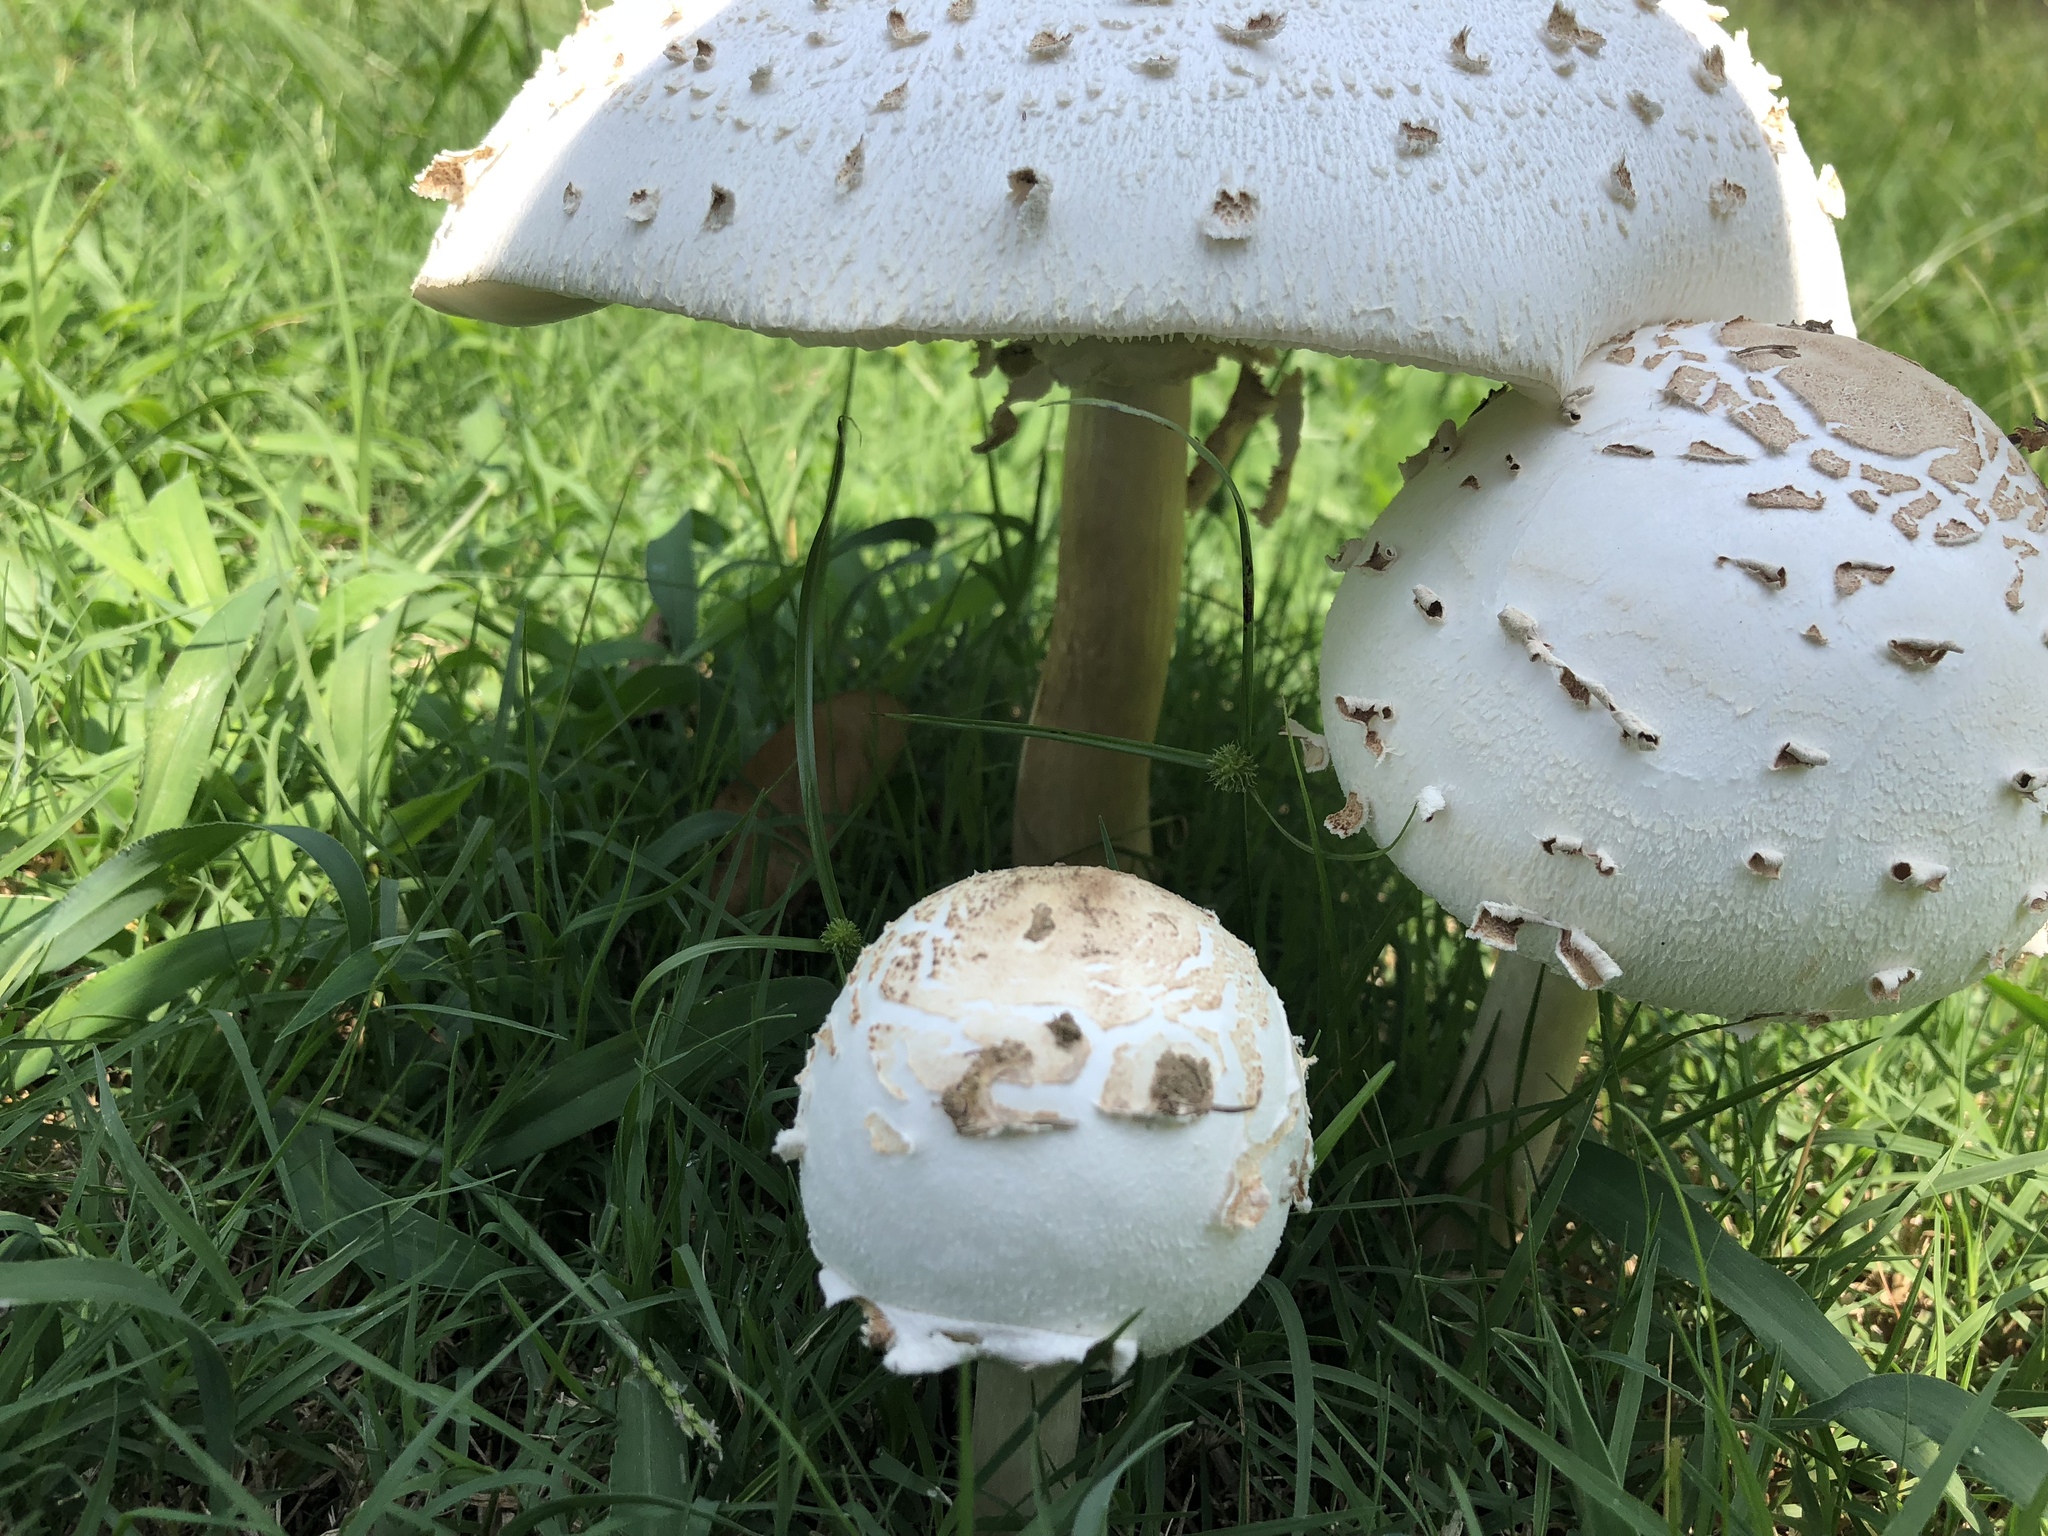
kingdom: Fungi
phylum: Basidiomycota
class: Agaricomycetes
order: Agaricales
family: Agaricaceae
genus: Chlorophyllum
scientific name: Chlorophyllum molybdites
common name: False parasol
